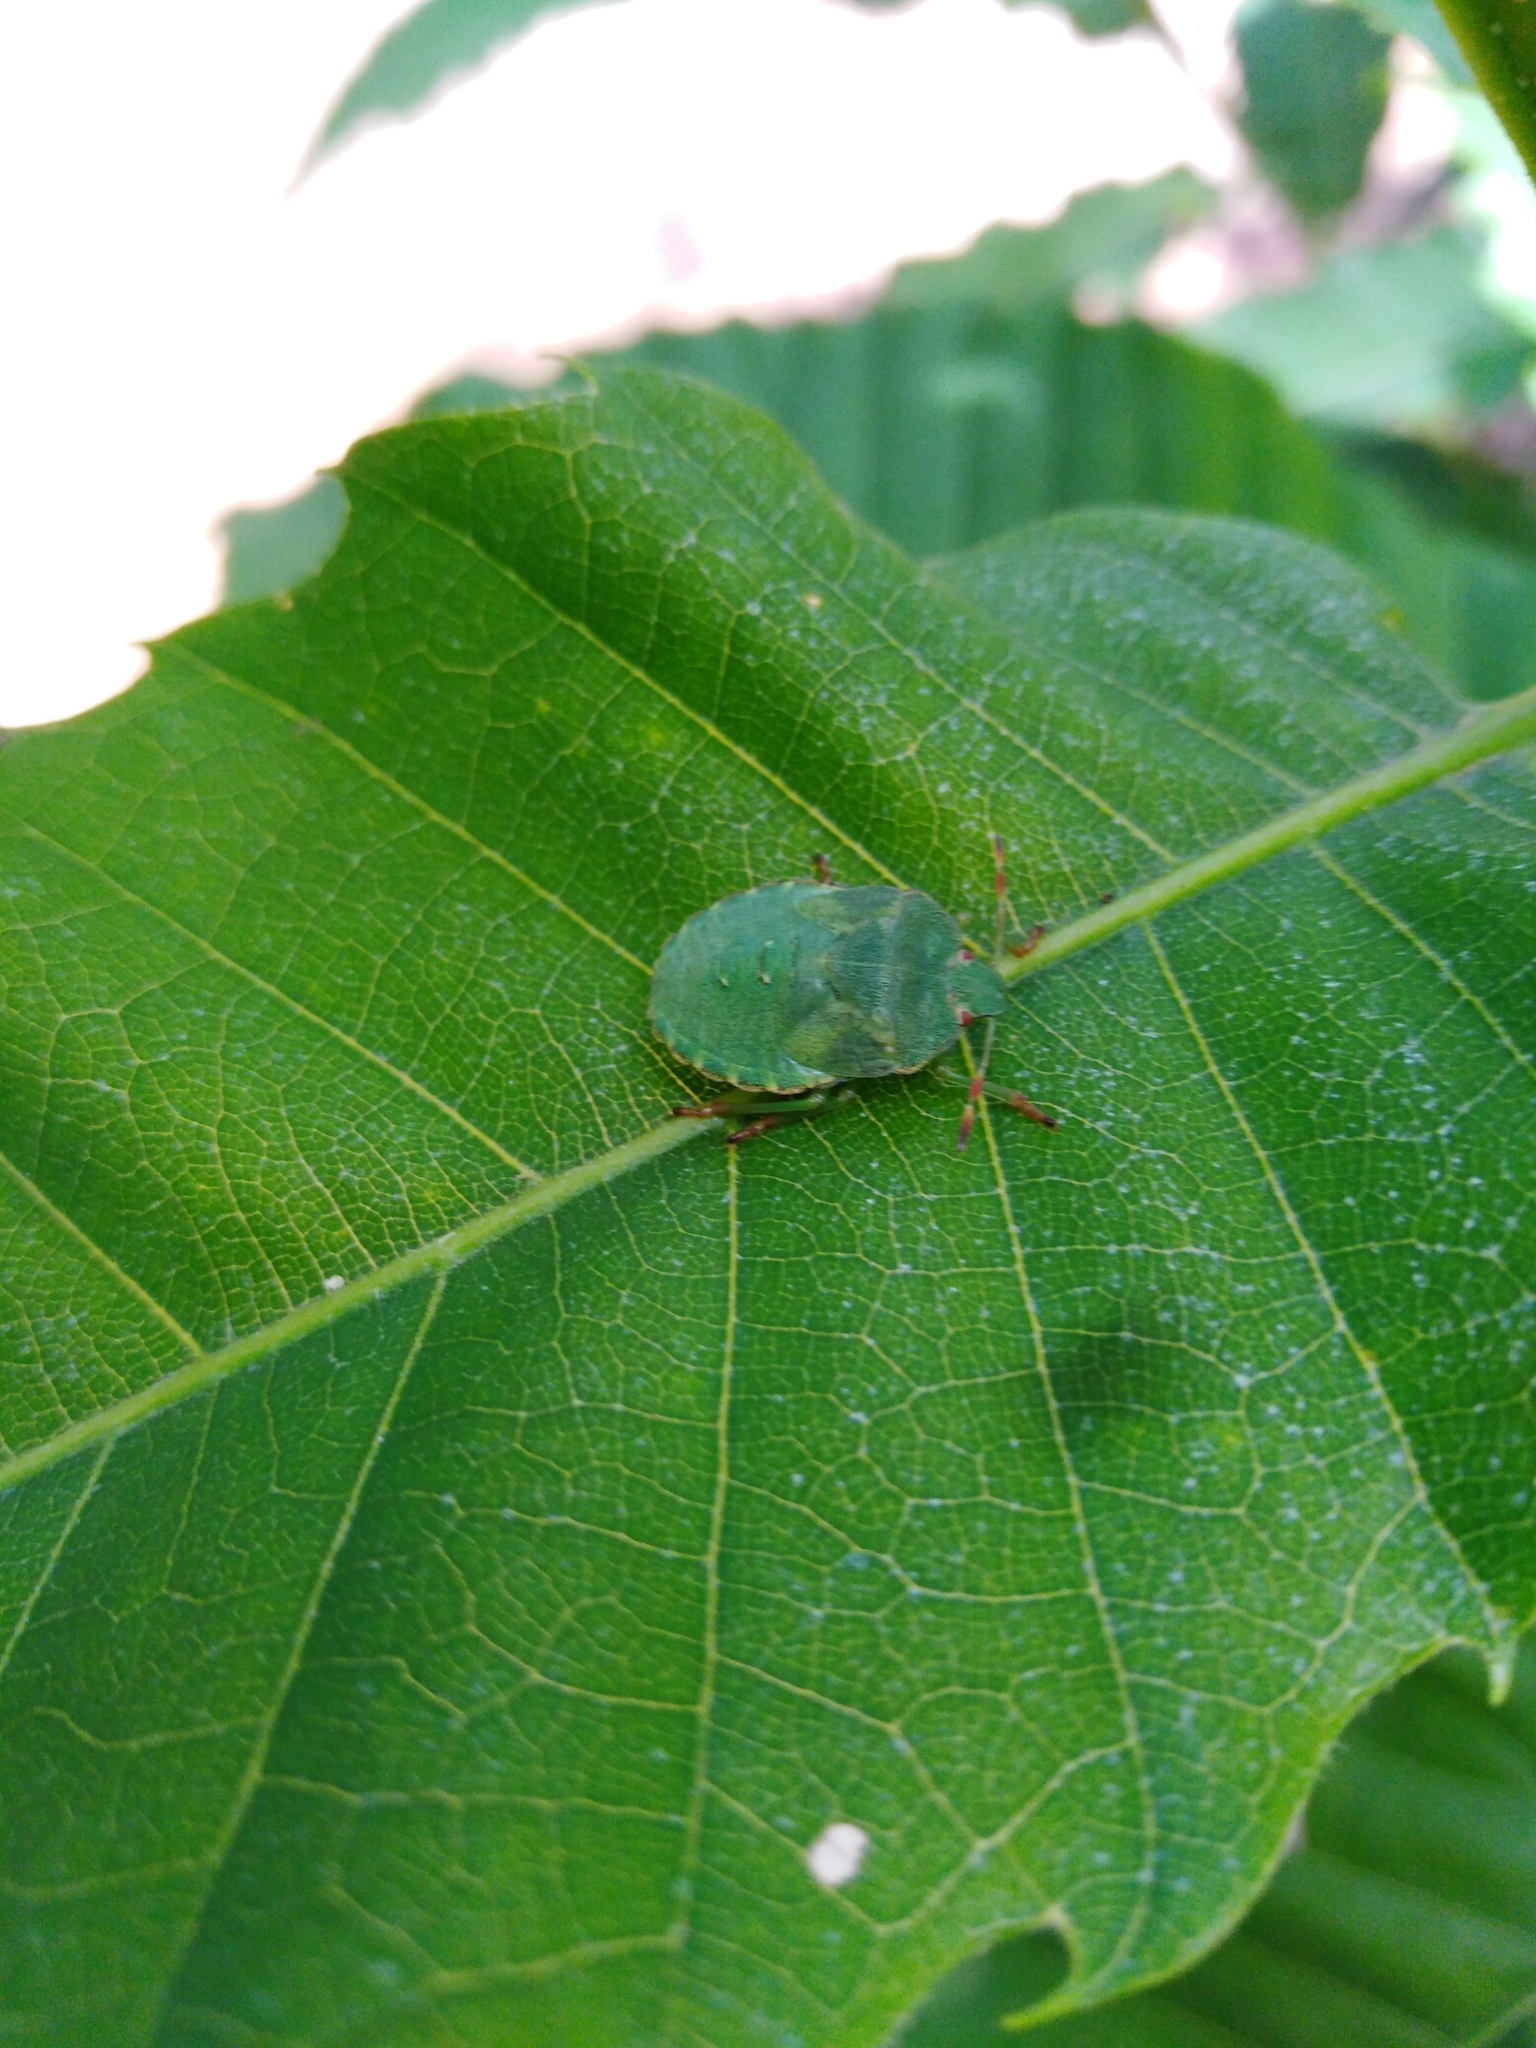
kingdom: Animalia
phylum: Arthropoda
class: Insecta
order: Hemiptera
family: Pentatomidae
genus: Palomena
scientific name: Palomena prasina
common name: Green shieldbug
